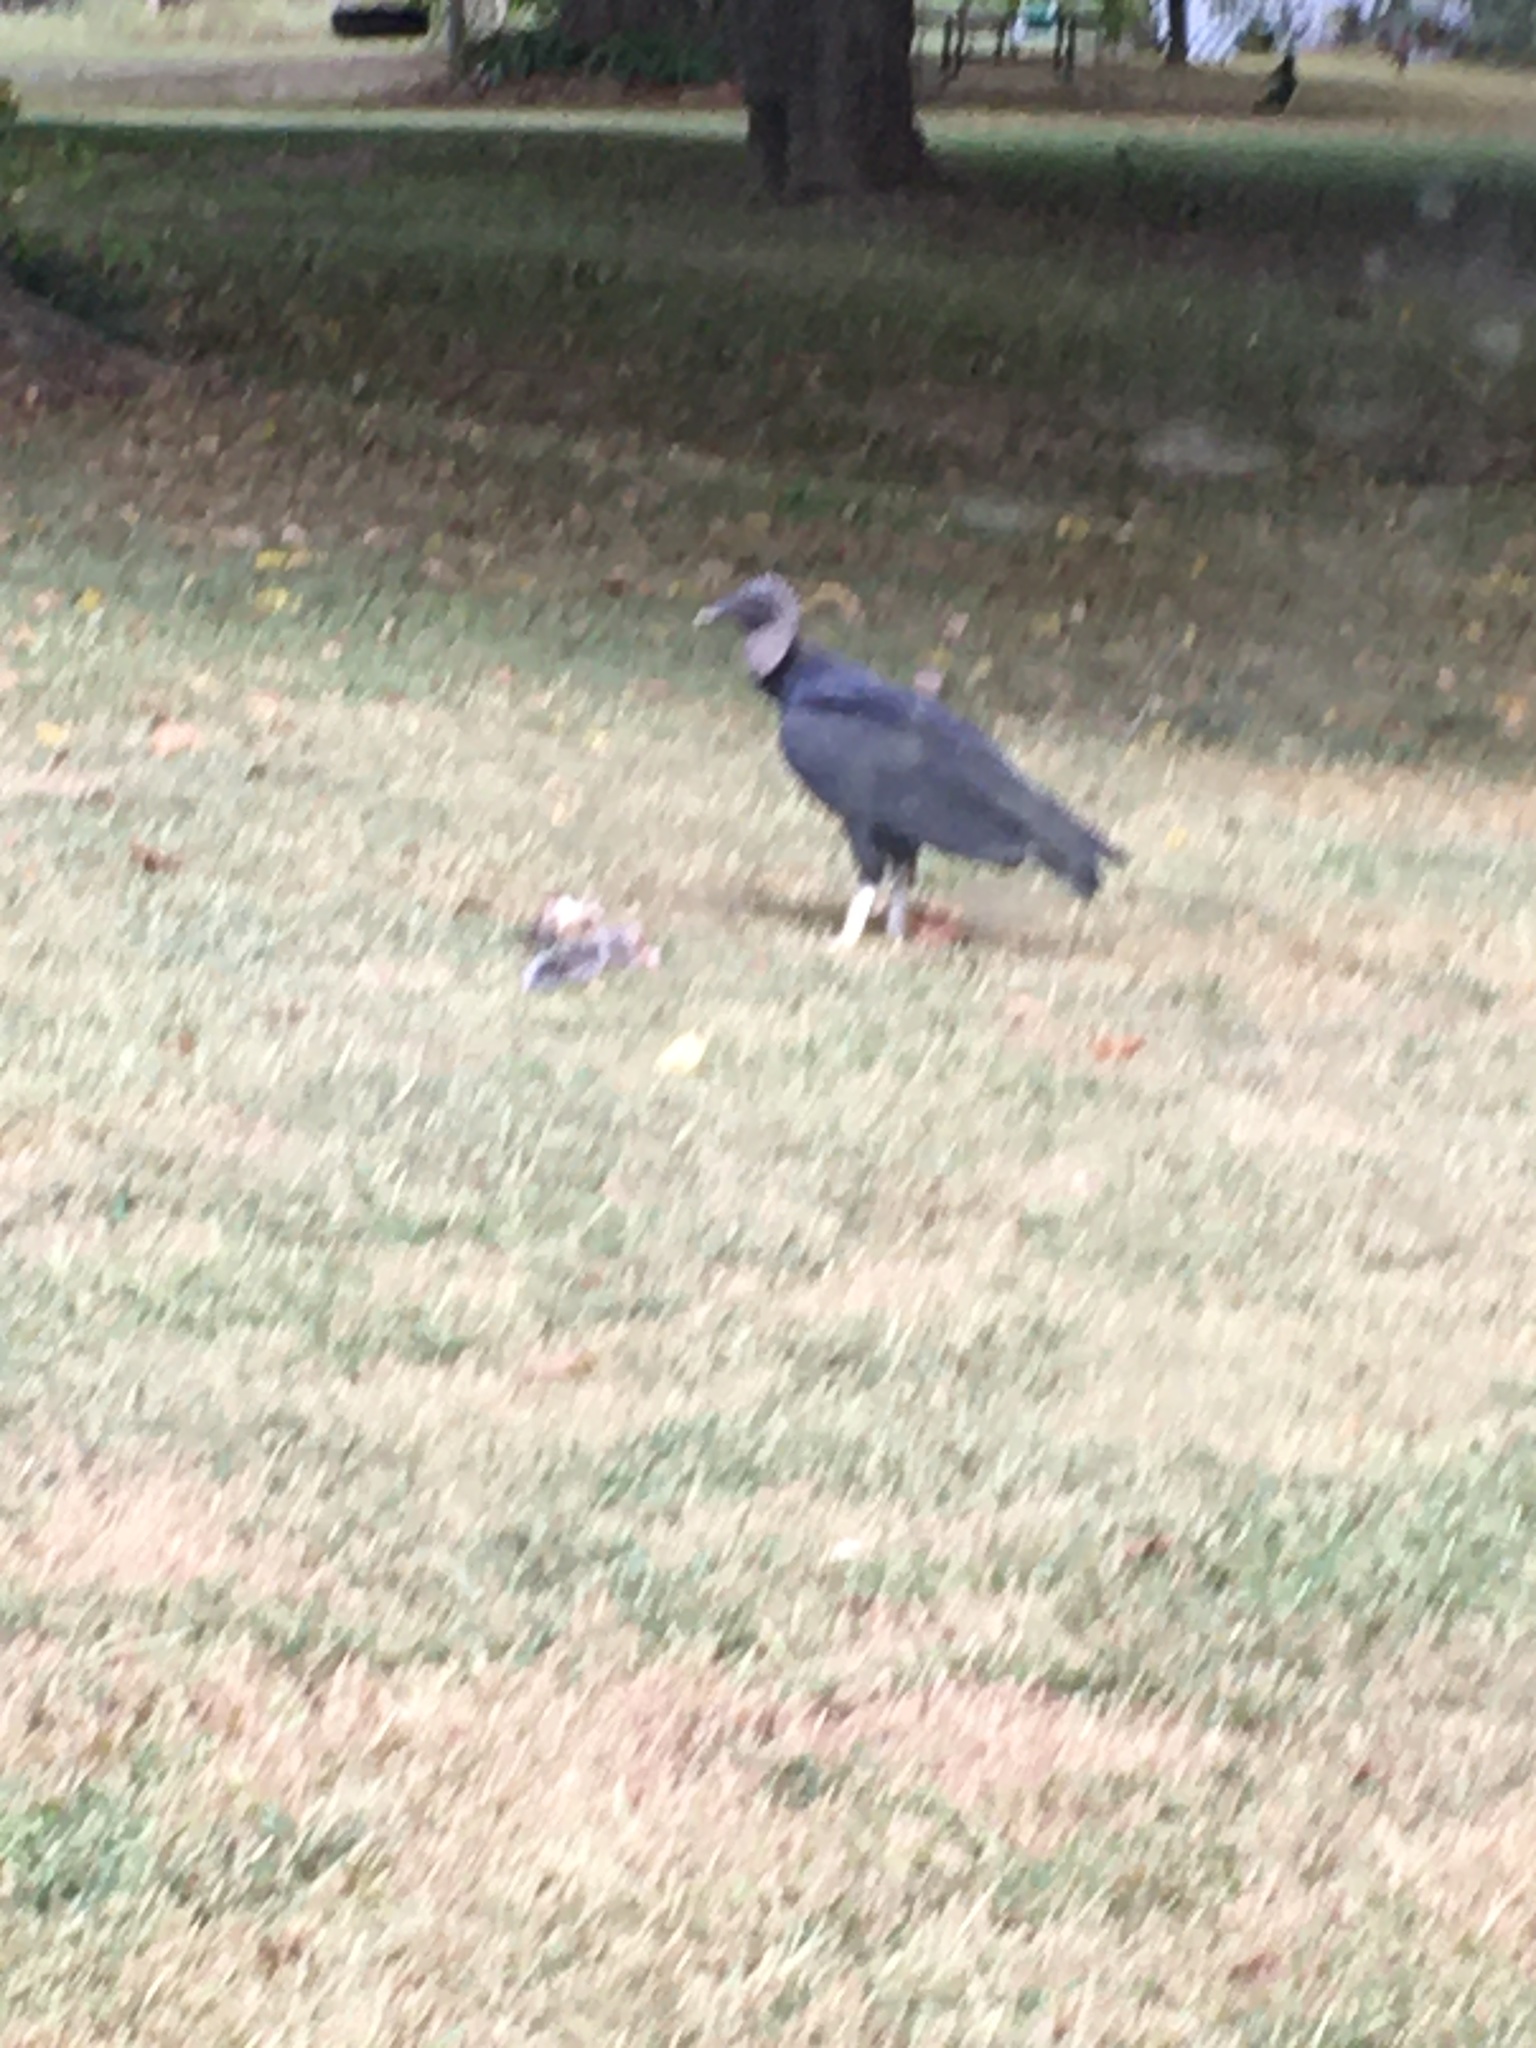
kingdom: Animalia
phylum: Chordata
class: Aves
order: Accipitriformes
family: Cathartidae
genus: Coragyps
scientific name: Coragyps atratus
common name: Black vulture
